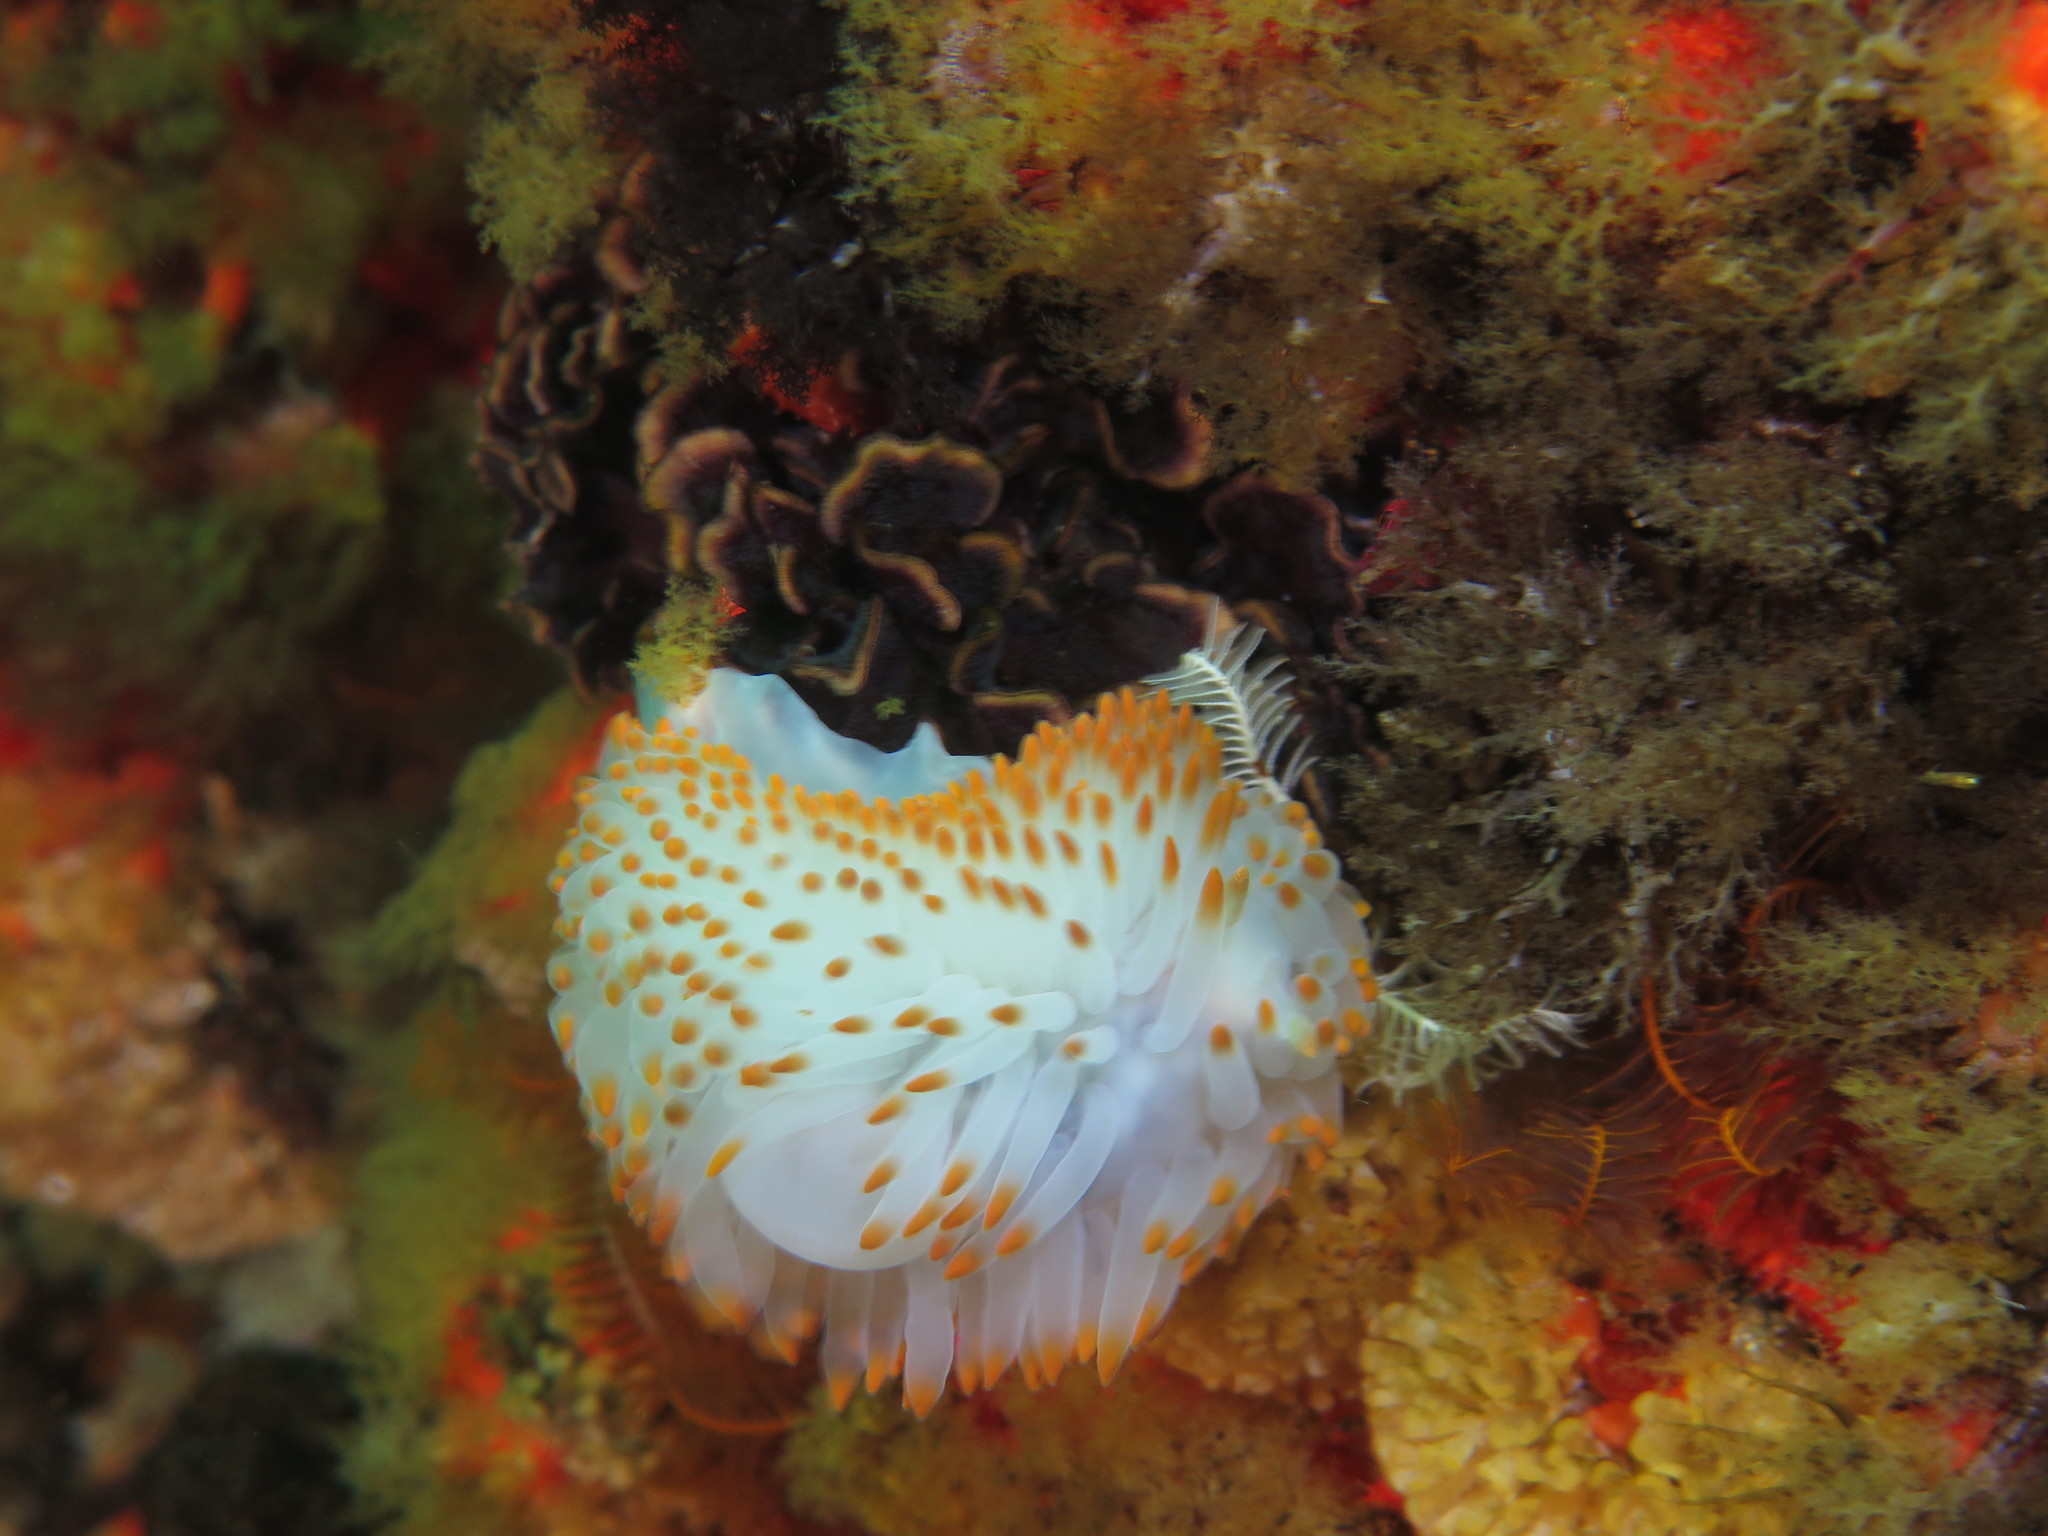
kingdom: Animalia
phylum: Mollusca
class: Gastropoda
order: Nudibranchia
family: Janolidae
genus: Bonisa
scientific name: Bonisa nakaza
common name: Gas flame nudibranch
